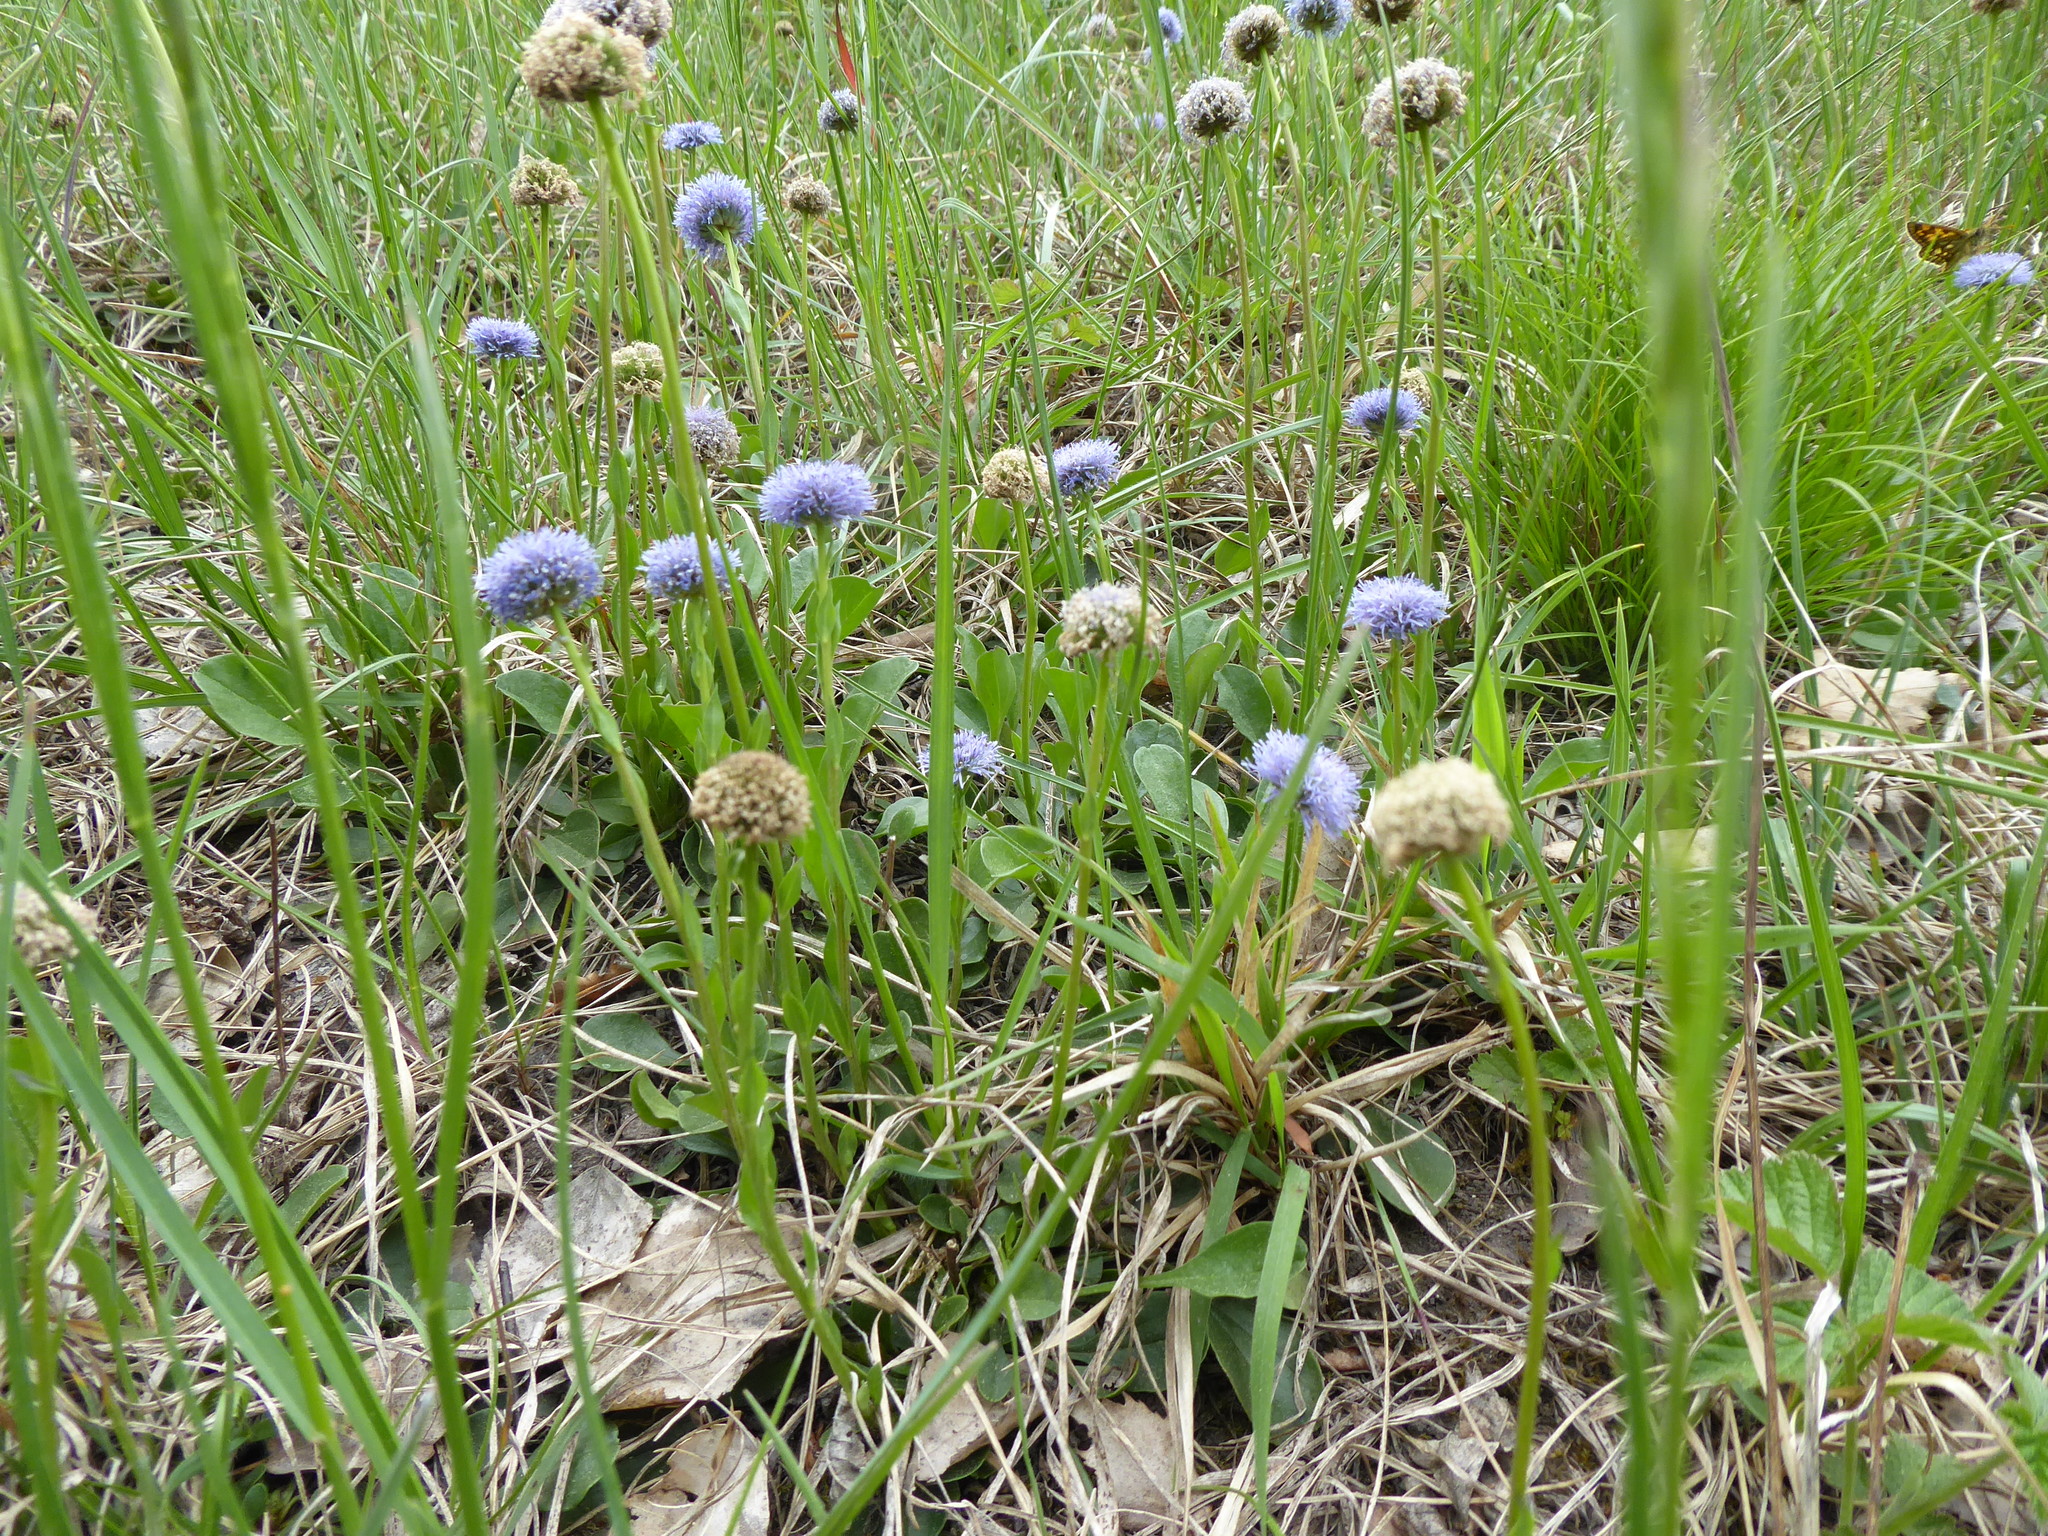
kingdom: Plantae
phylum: Tracheophyta
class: Magnoliopsida
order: Lamiales
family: Plantaginaceae
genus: Globularia
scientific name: Globularia bisnagarica
